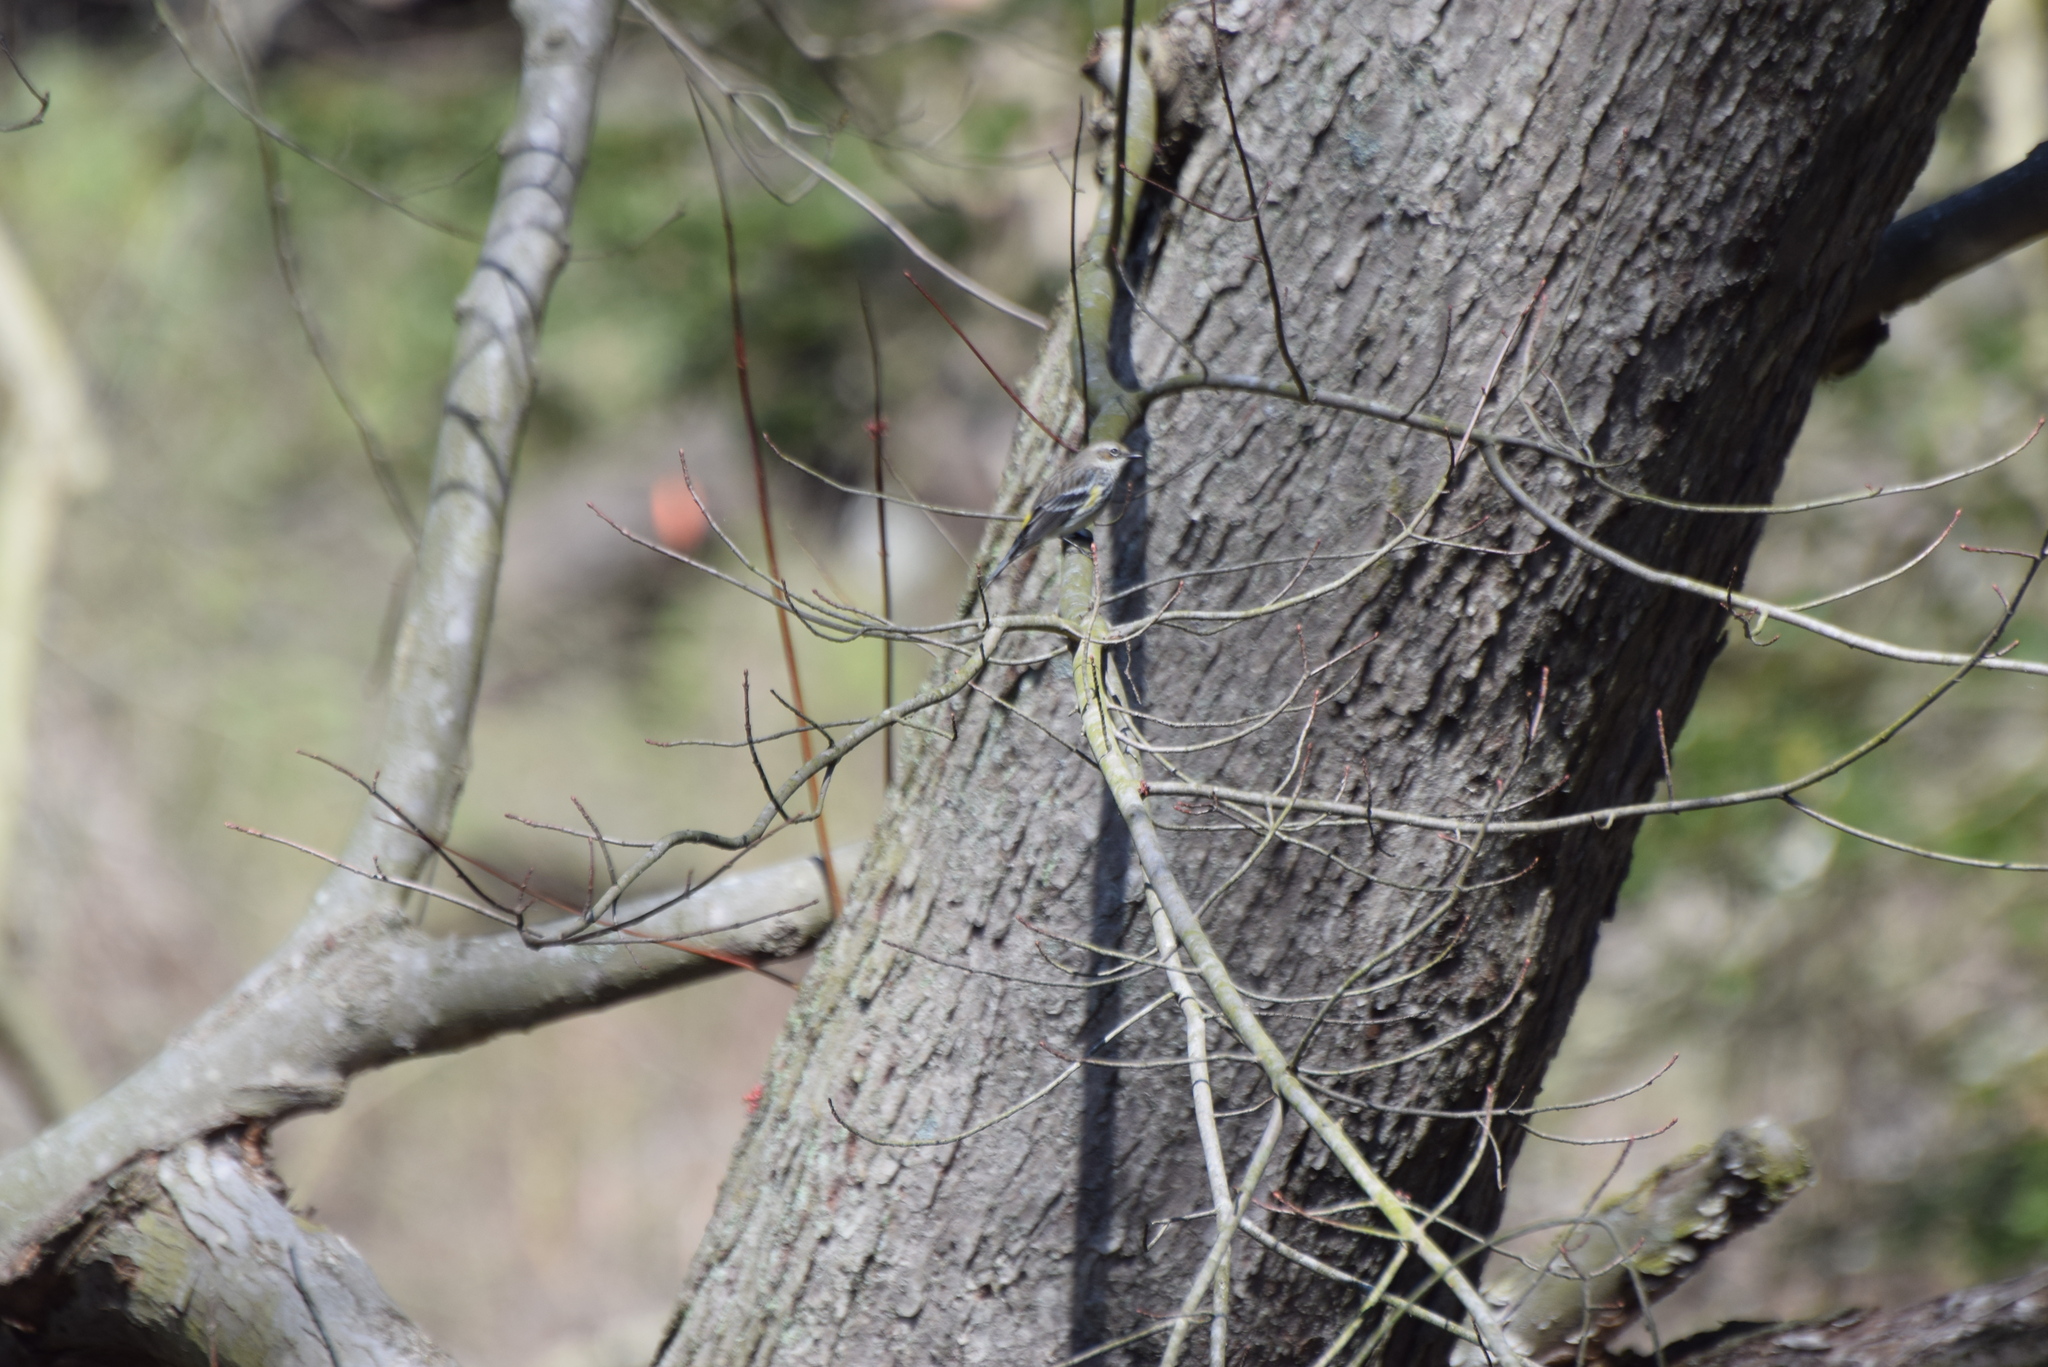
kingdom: Animalia
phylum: Chordata
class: Aves
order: Passeriformes
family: Parulidae
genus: Setophaga
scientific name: Setophaga coronata
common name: Myrtle warbler
